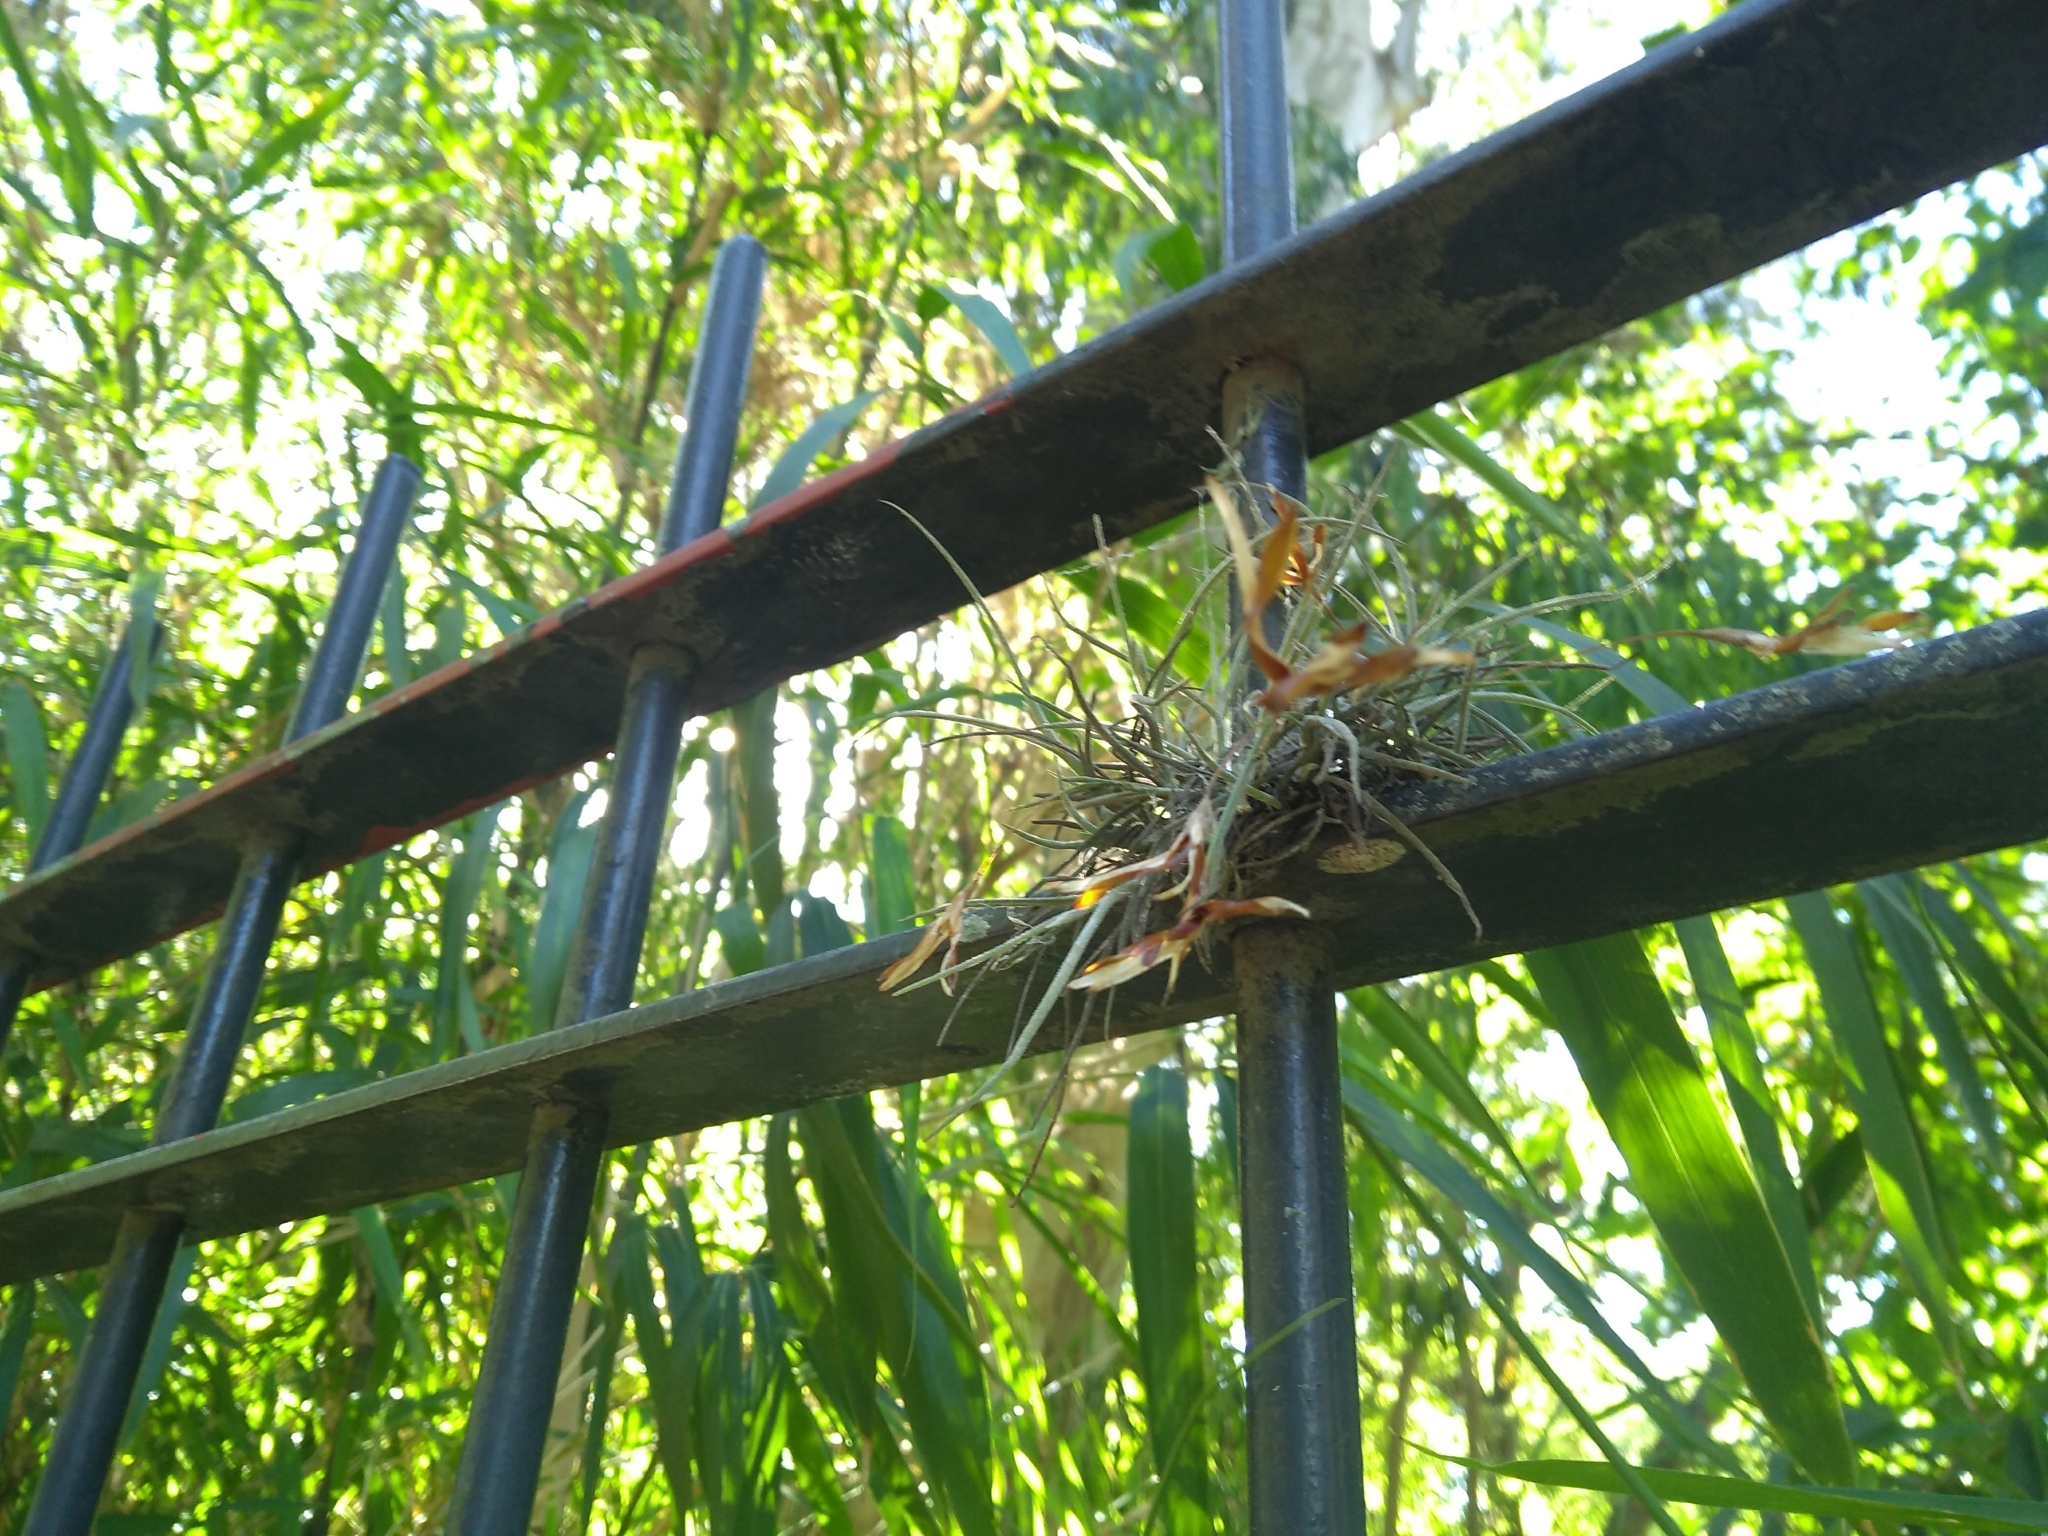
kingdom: Plantae
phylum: Tracheophyta
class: Liliopsida
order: Poales
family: Bromeliaceae
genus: Tillandsia
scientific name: Tillandsia recurvata
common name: Small ballmoss
